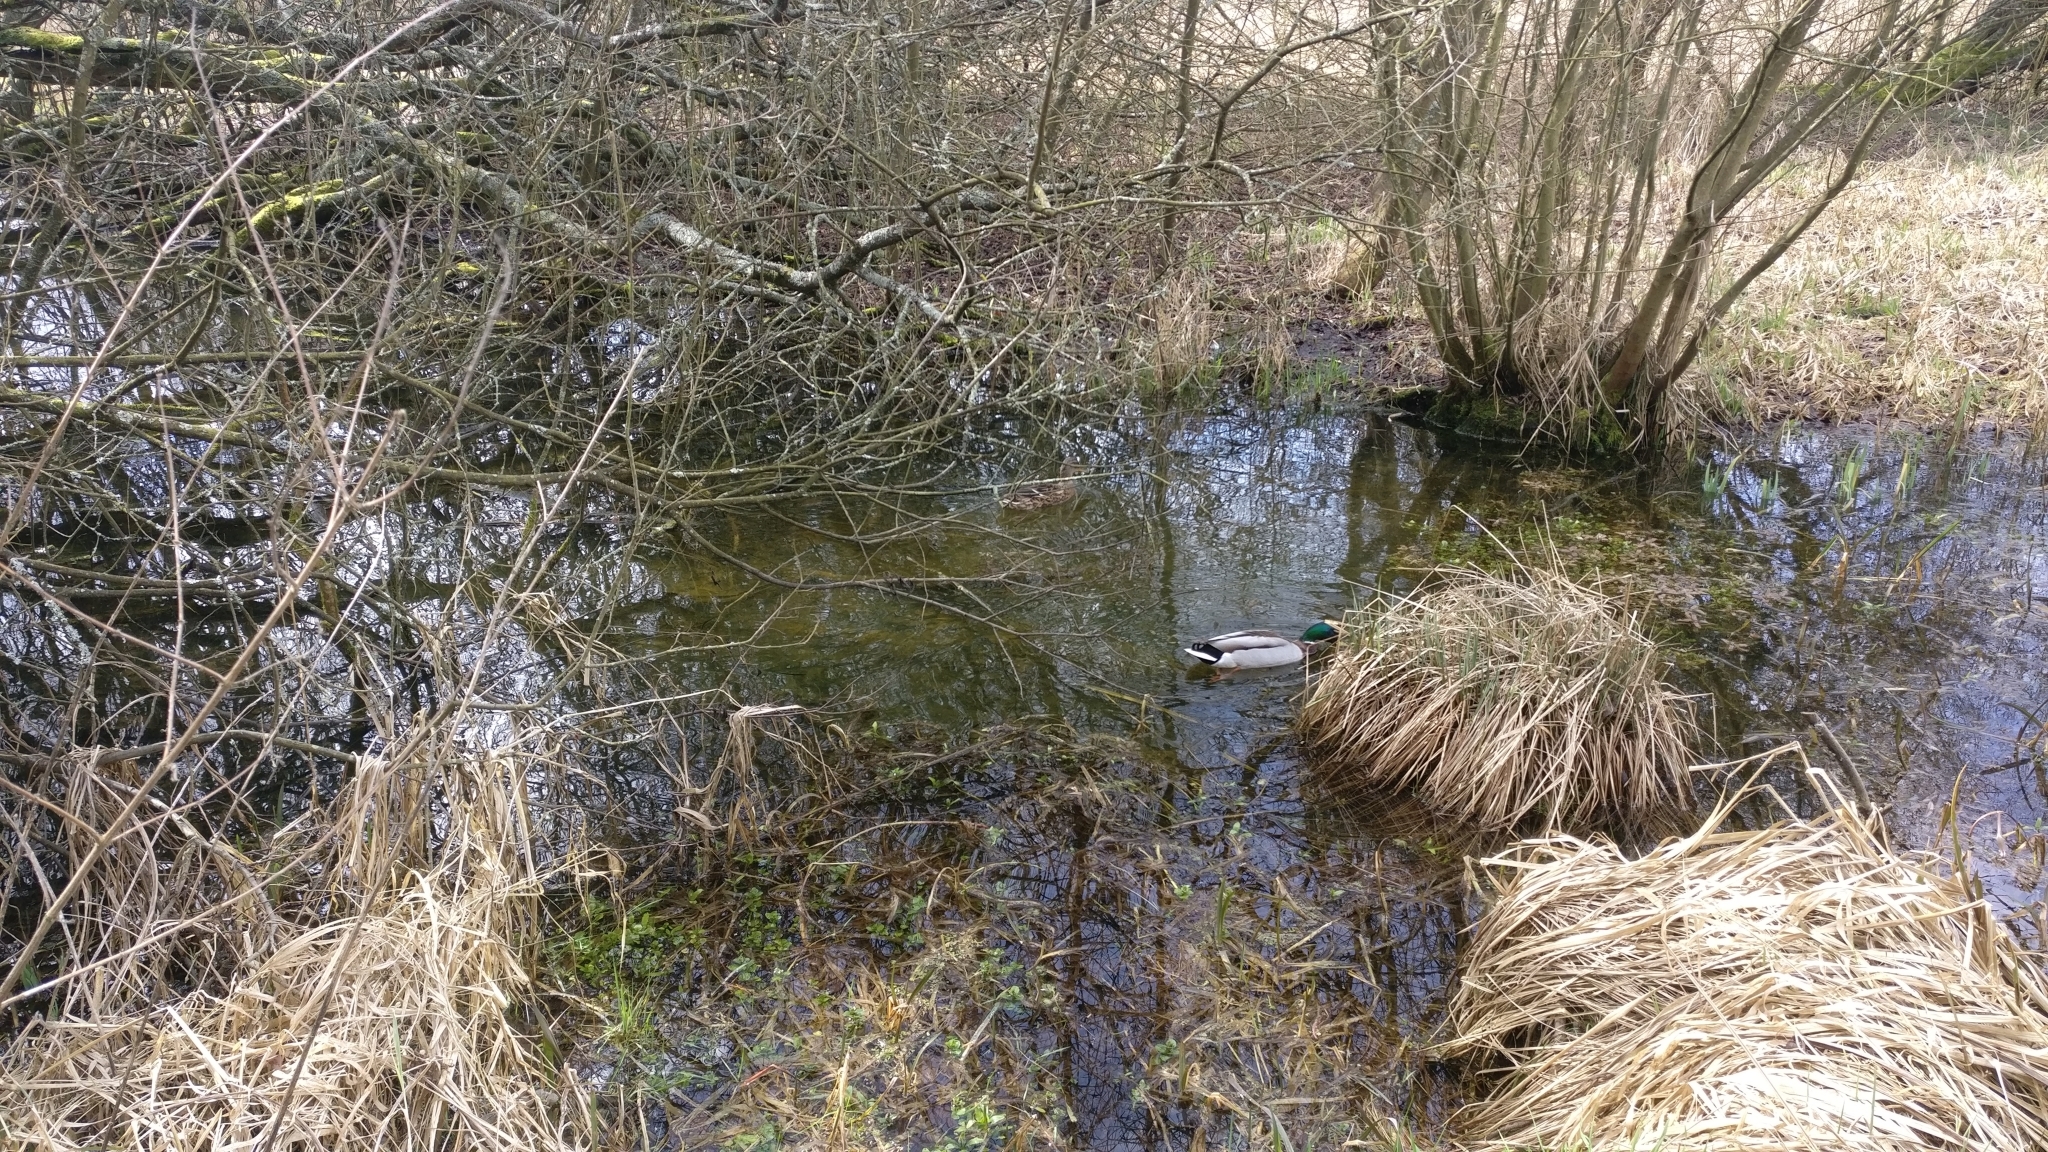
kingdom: Animalia
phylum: Chordata
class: Aves
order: Anseriformes
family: Anatidae
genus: Anas
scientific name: Anas platyrhynchos
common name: Mallard
